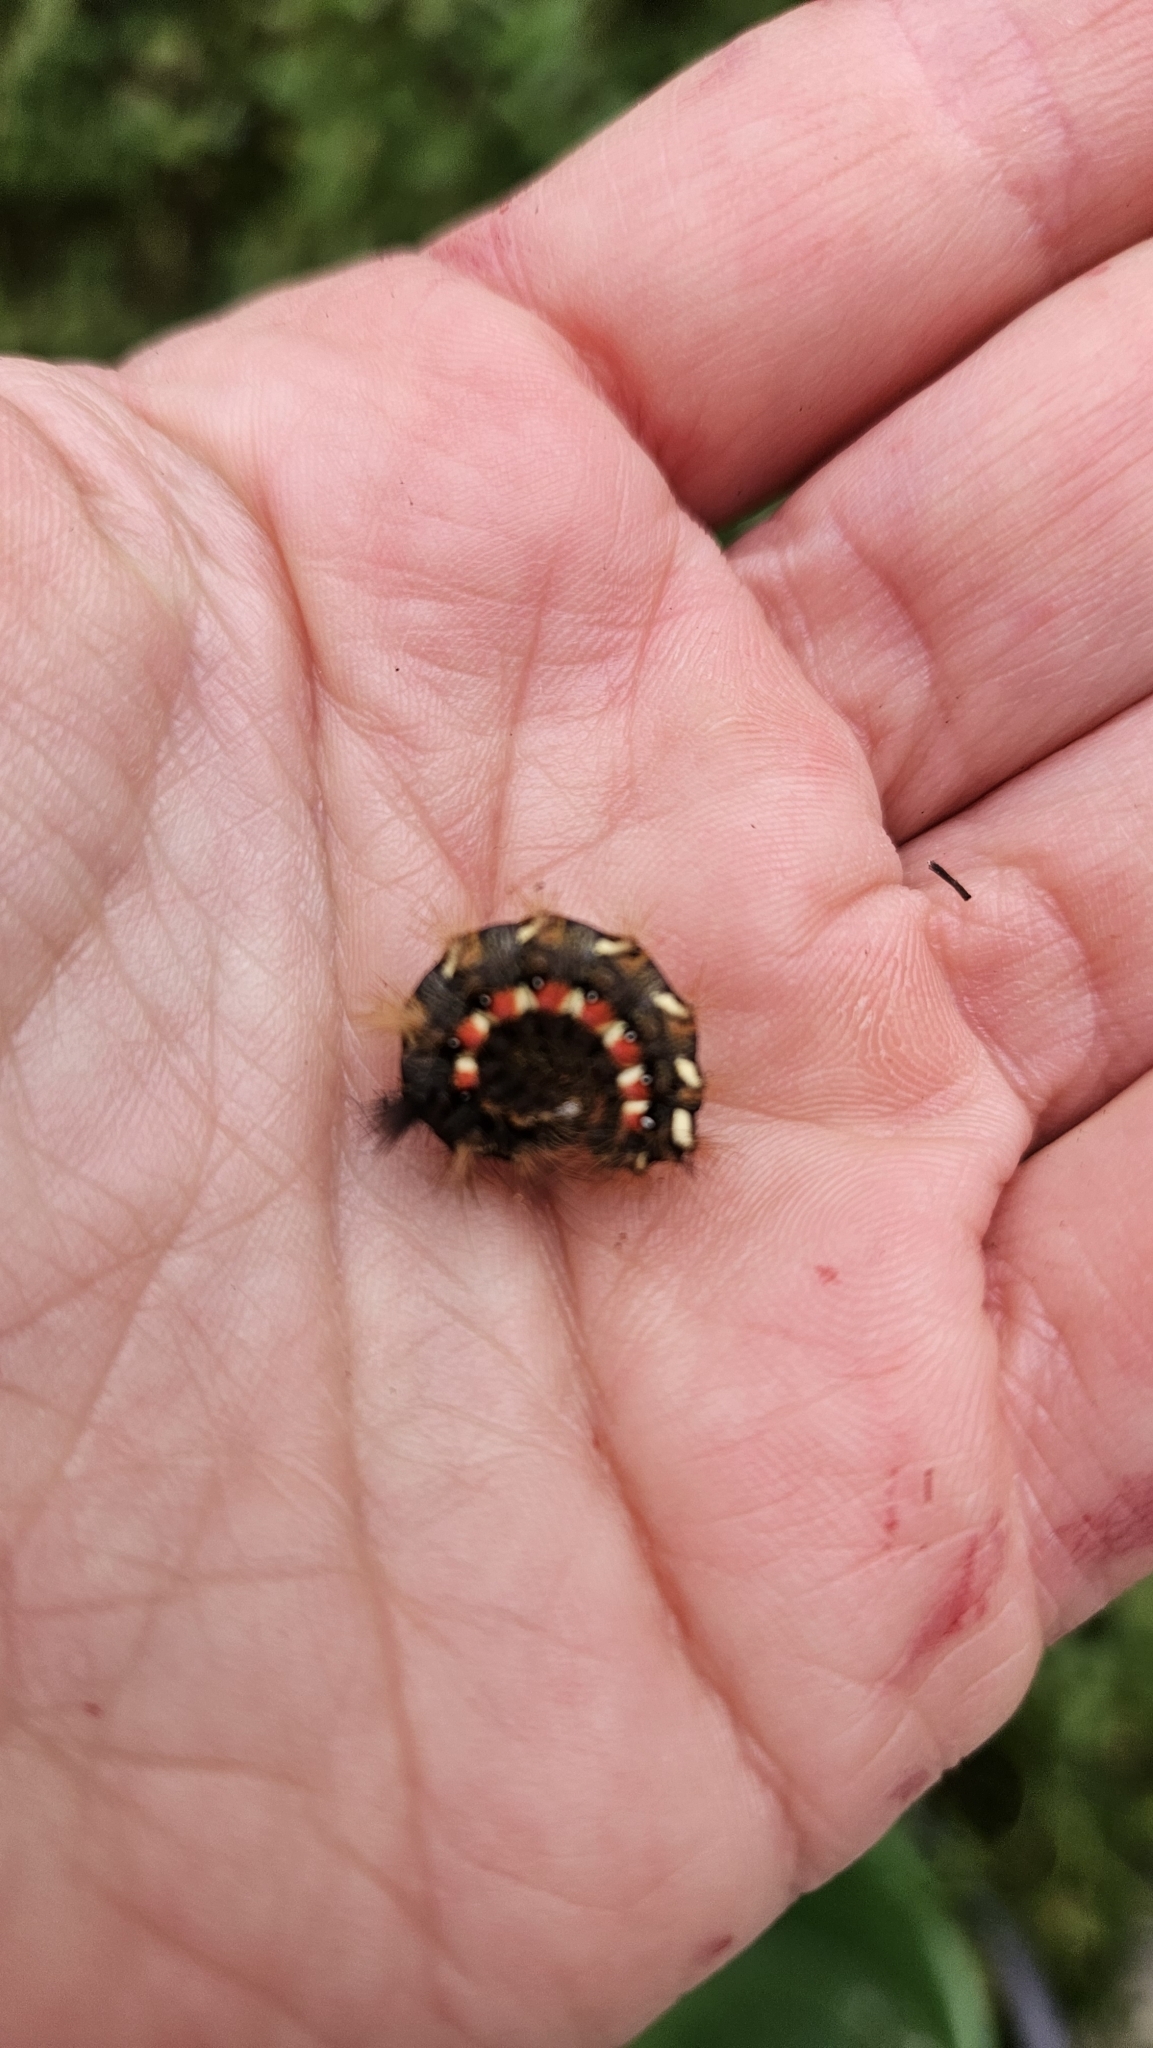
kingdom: Animalia
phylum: Arthropoda
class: Insecta
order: Lepidoptera
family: Noctuidae
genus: Acronicta
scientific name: Acronicta rumicis
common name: Knot grass
